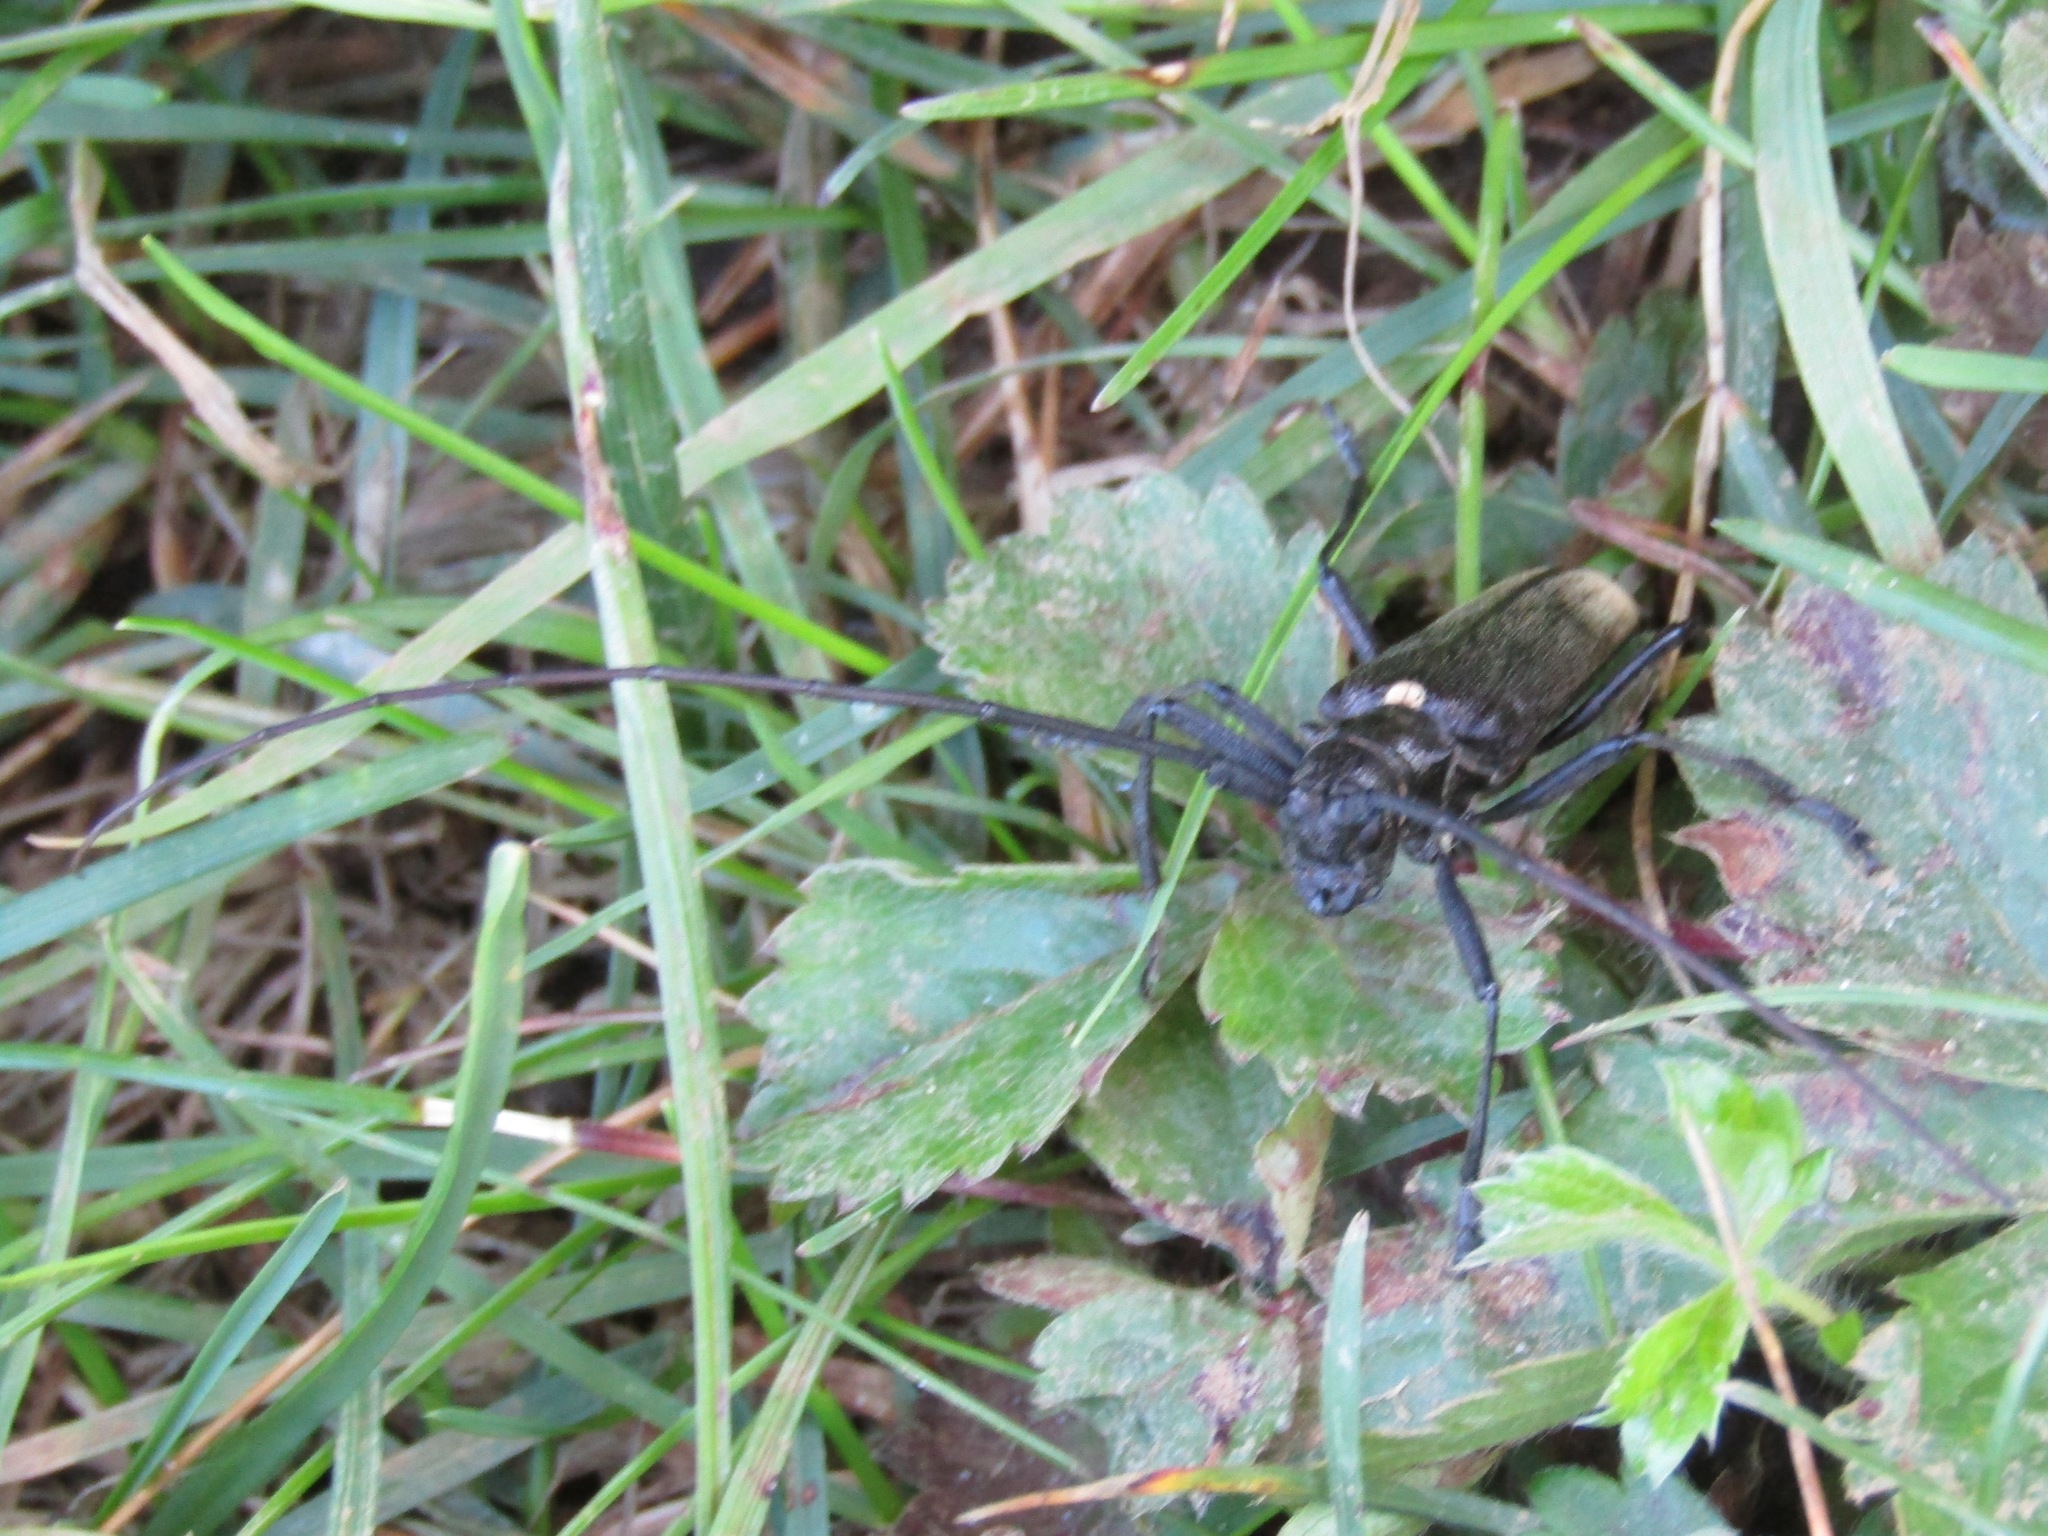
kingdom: Animalia
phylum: Arthropoda
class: Insecta
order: Coleoptera
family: Cerambycidae
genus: Monochamus
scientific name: Monochamus urussovii
